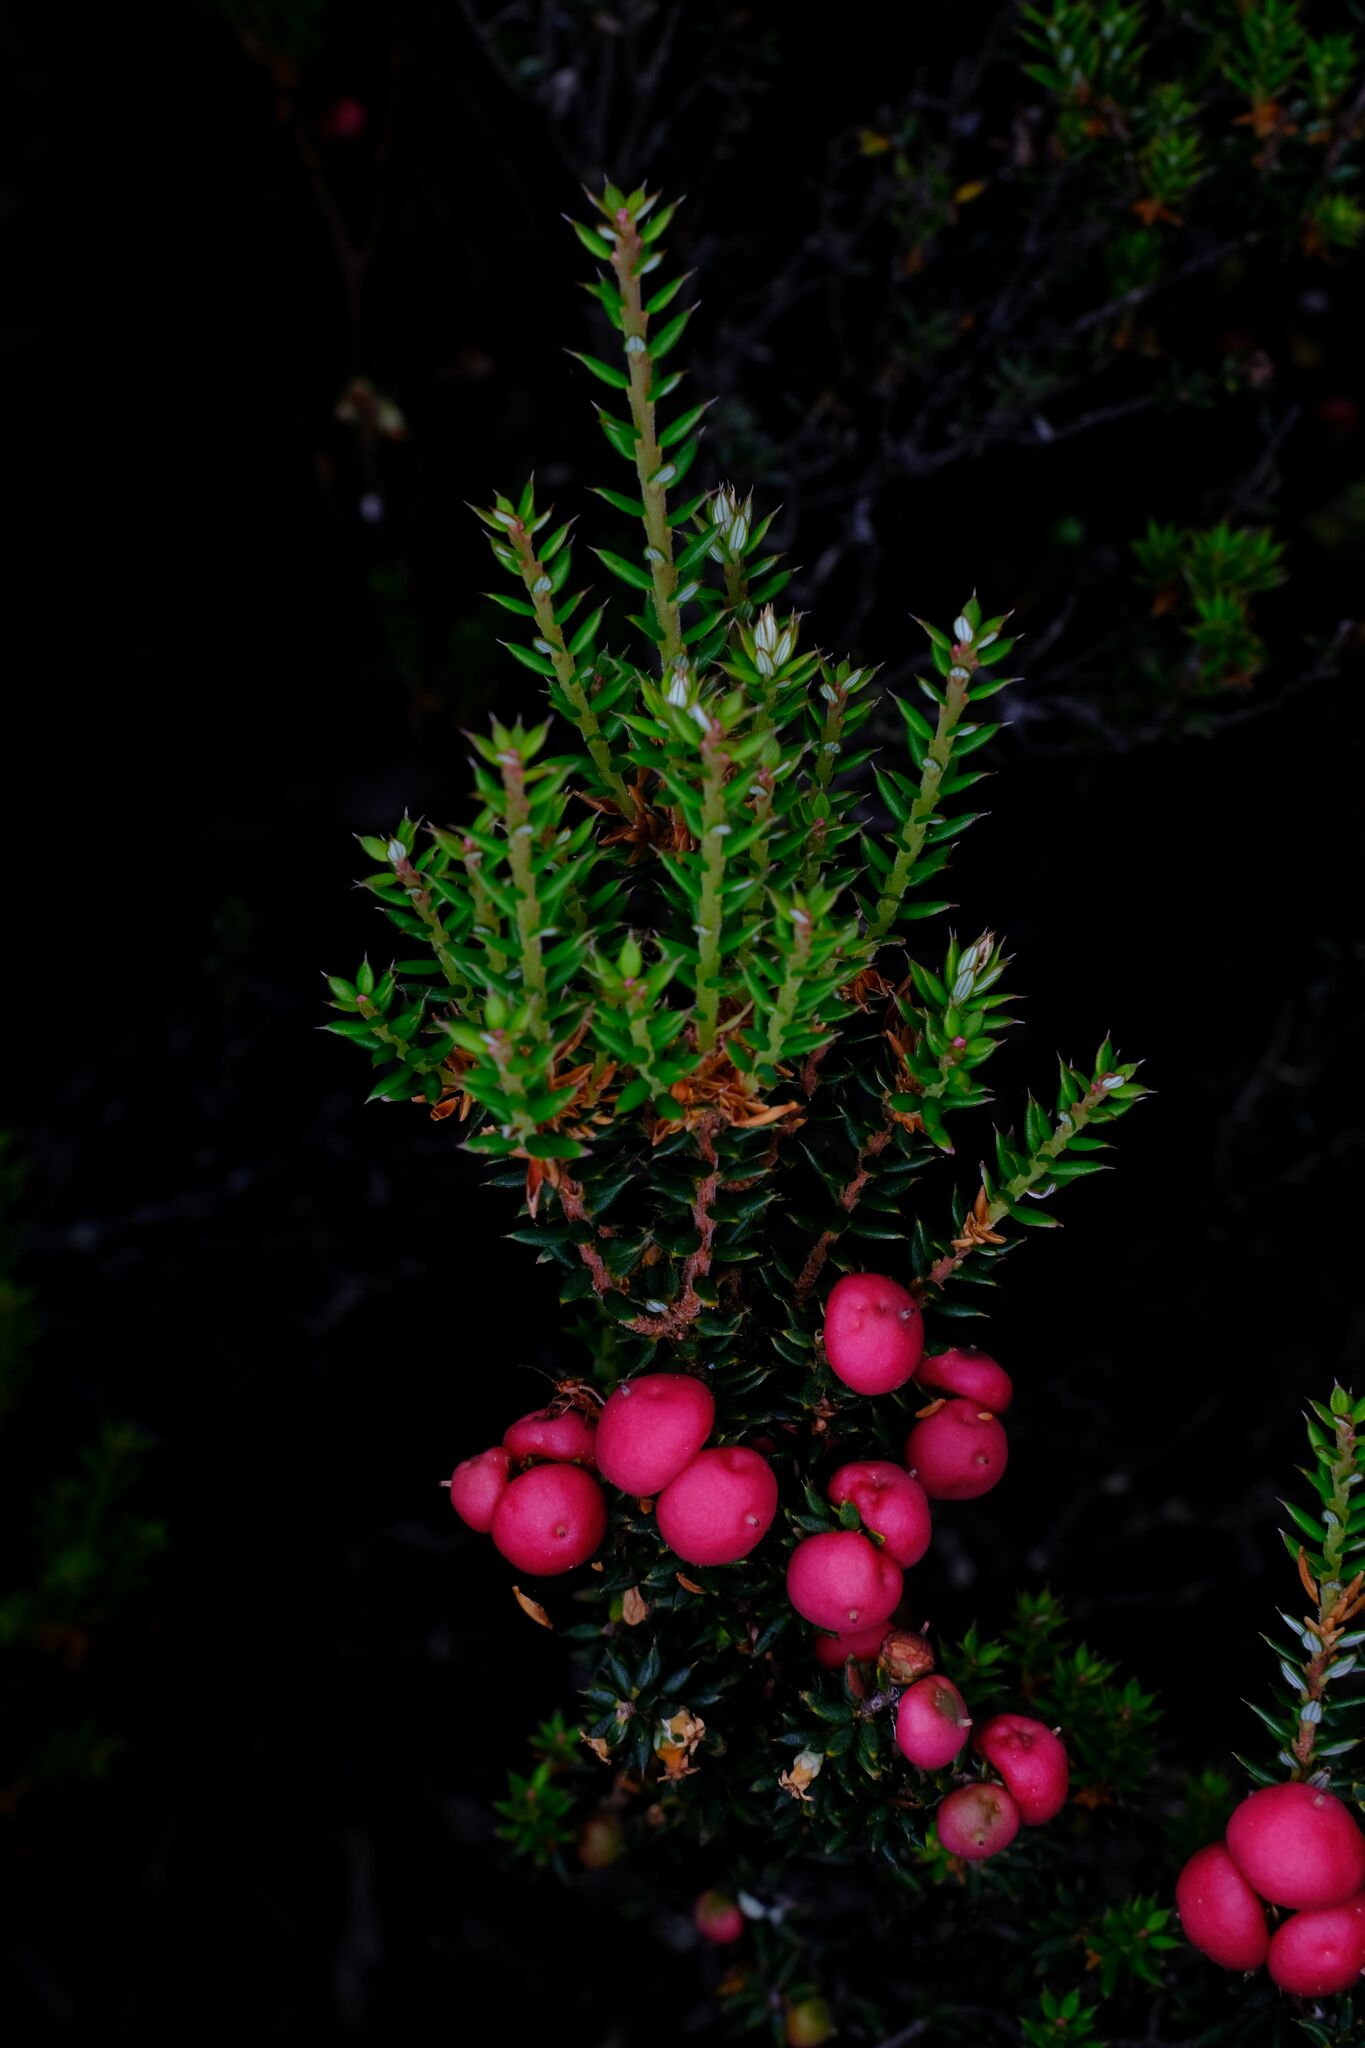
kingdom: Plantae
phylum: Tracheophyta
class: Magnoliopsida
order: Ericales
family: Ericaceae
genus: Leptecophylla
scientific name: Leptecophylla parvifolia
